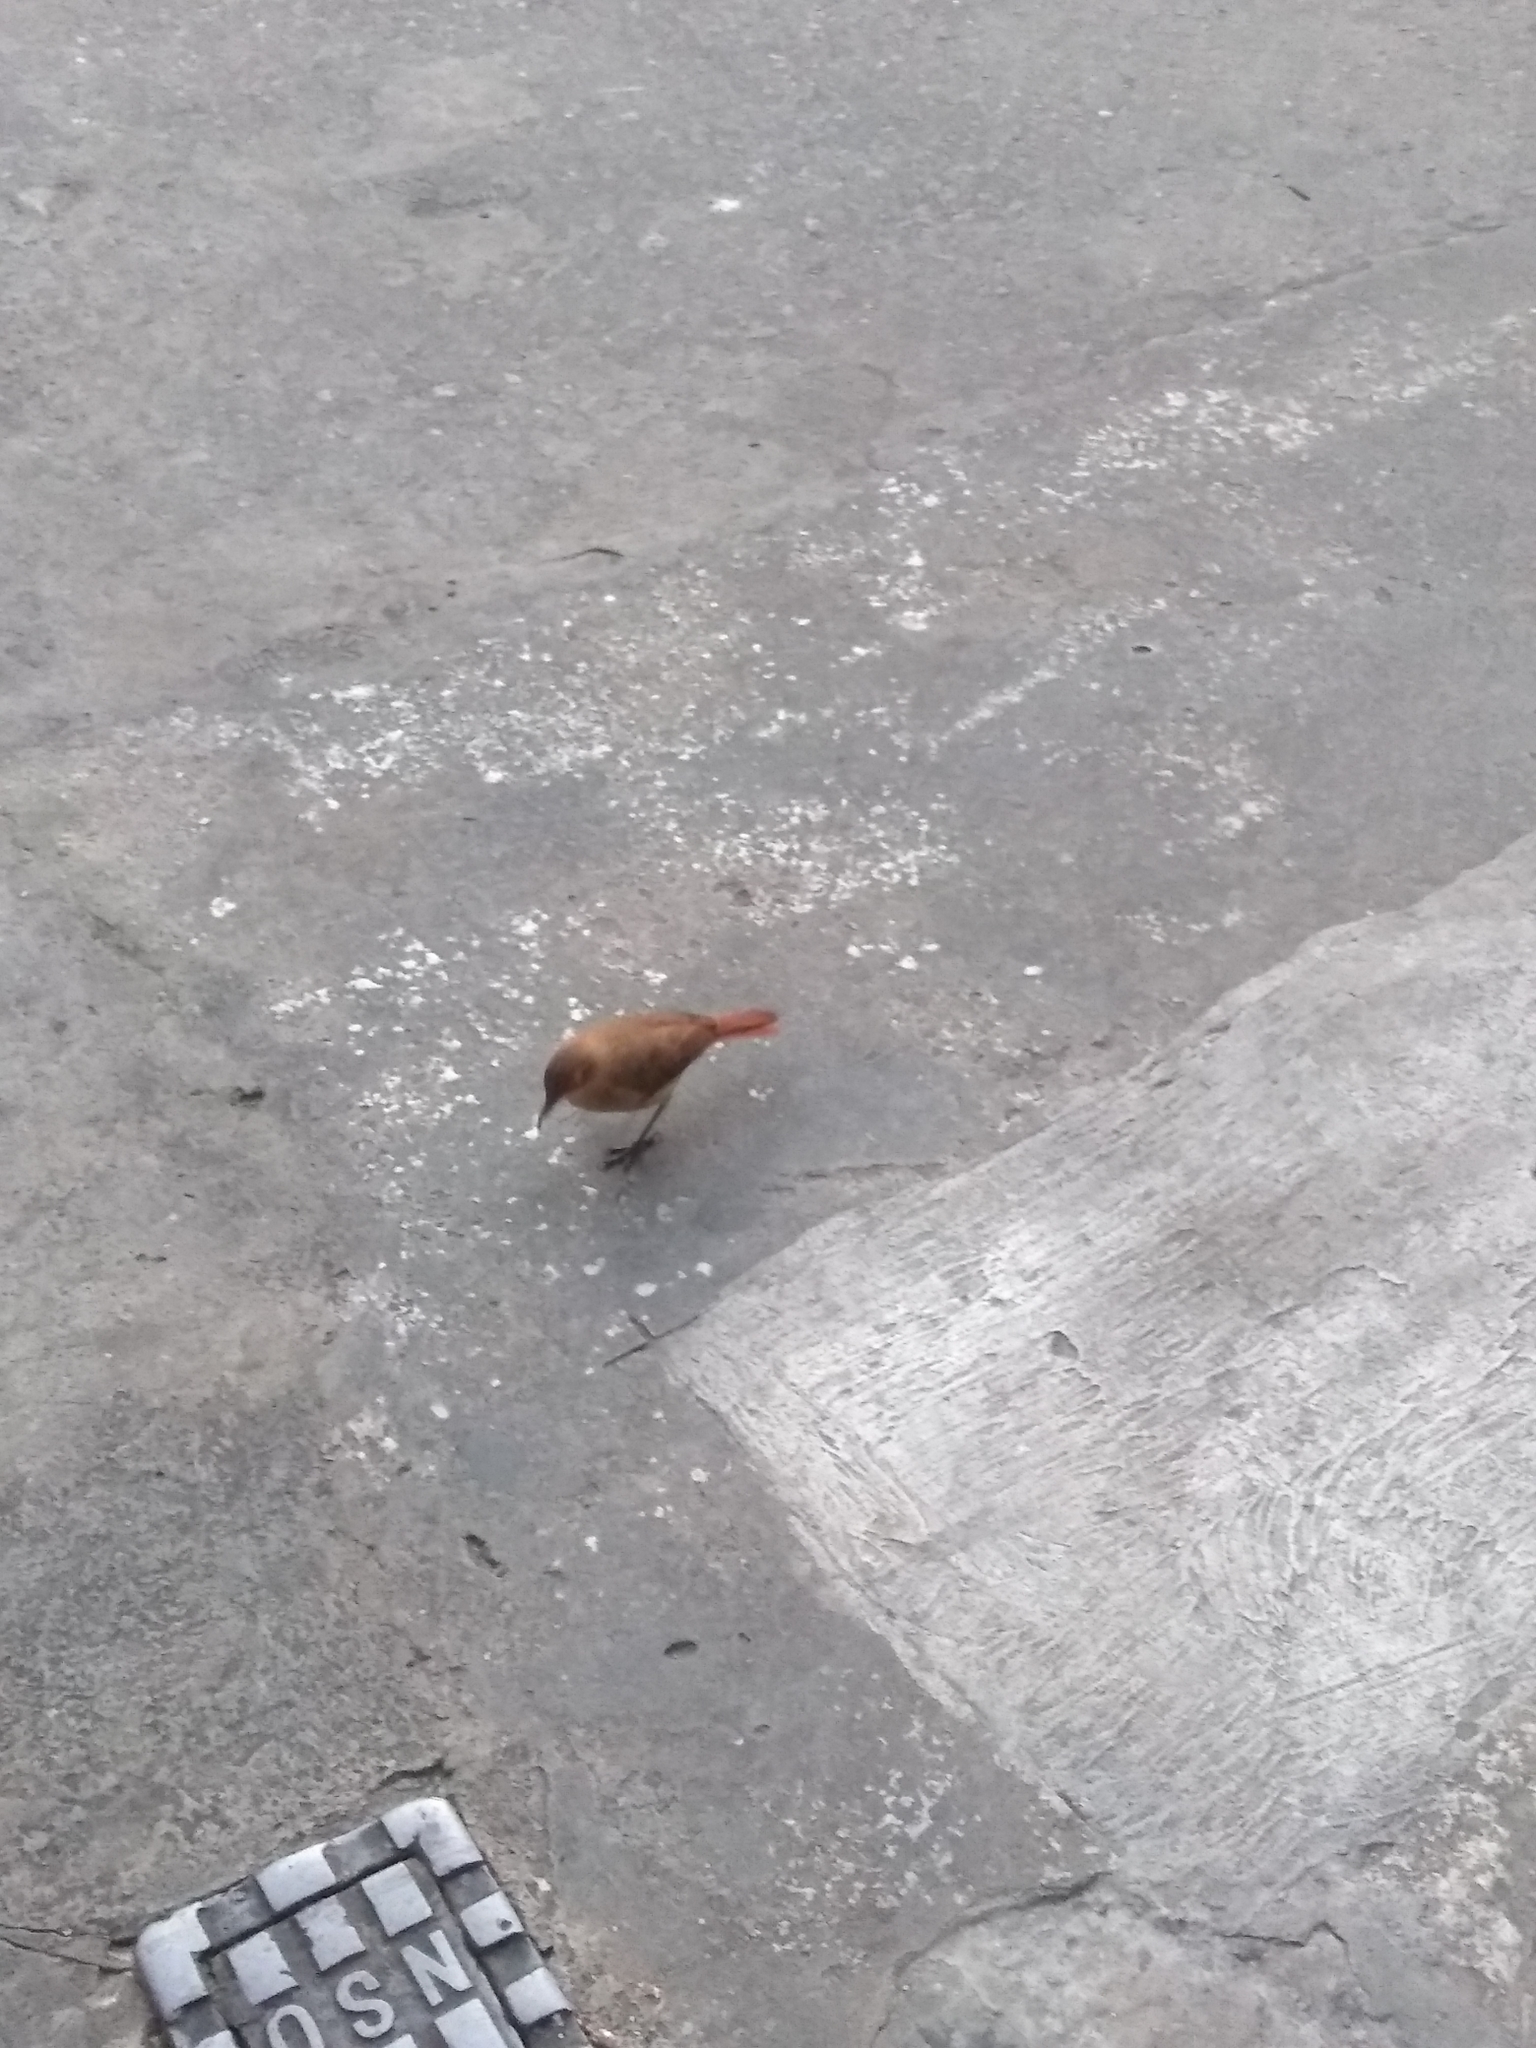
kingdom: Animalia
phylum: Chordata
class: Aves
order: Passeriformes
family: Furnariidae
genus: Furnarius
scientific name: Furnarius rufus
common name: Rufous hornero
